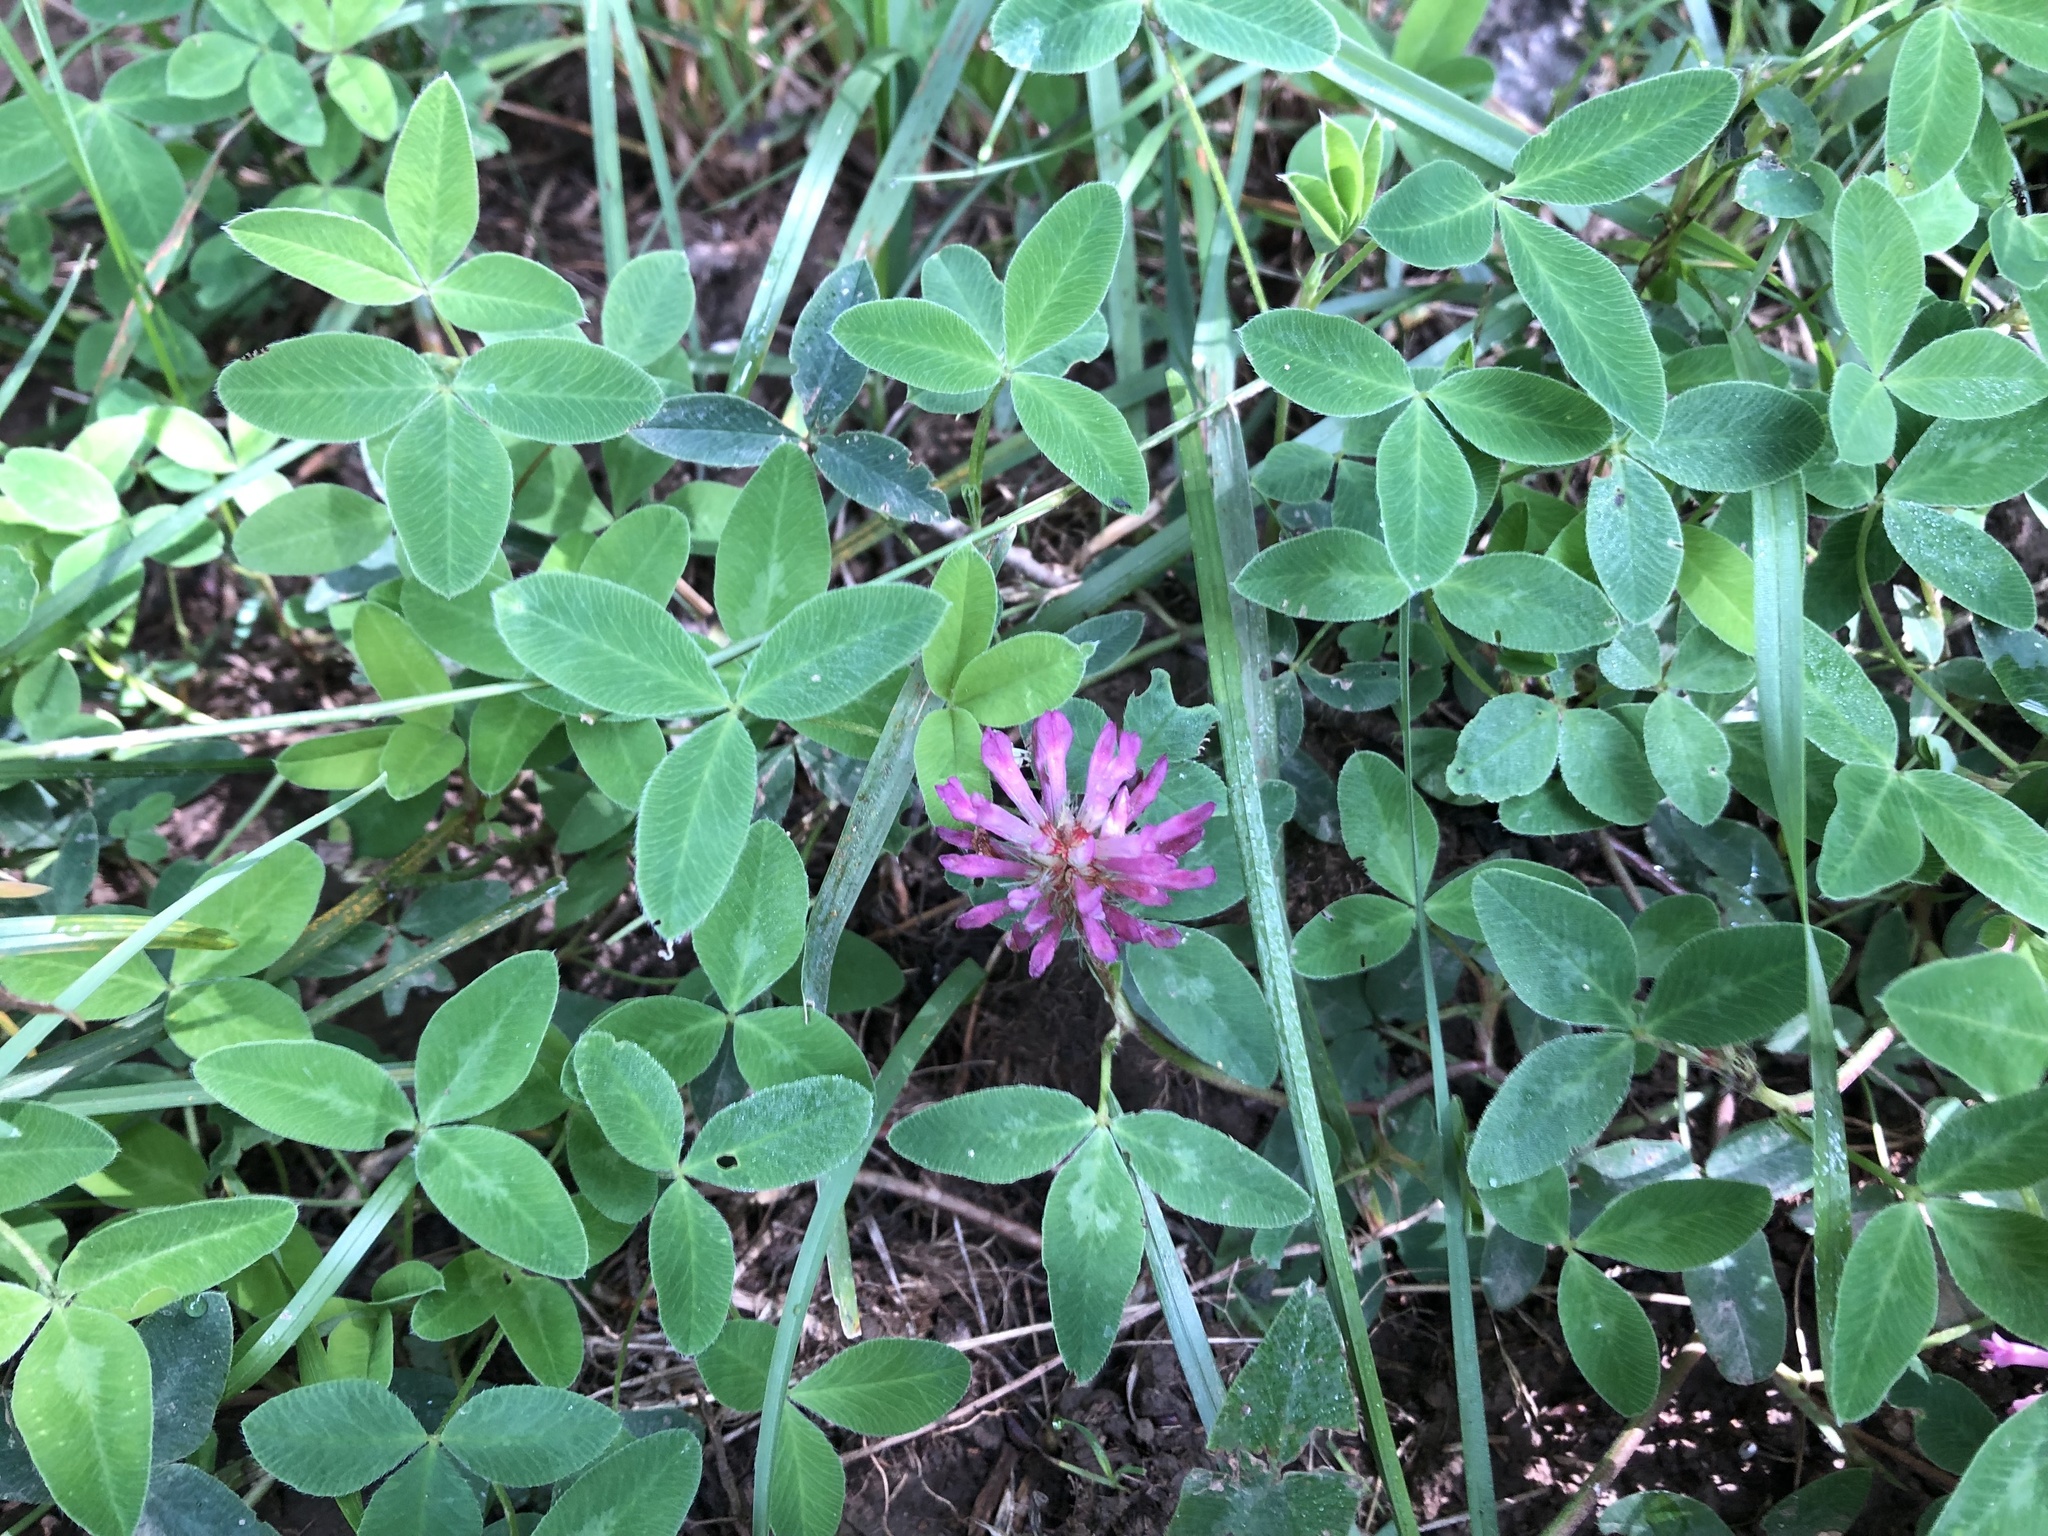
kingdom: Plantae
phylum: Tracheophyta
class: Magnoliopsida
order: Fabales
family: Fabaceae
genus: Trifolium
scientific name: Trifolium medium
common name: Zigzag clover
